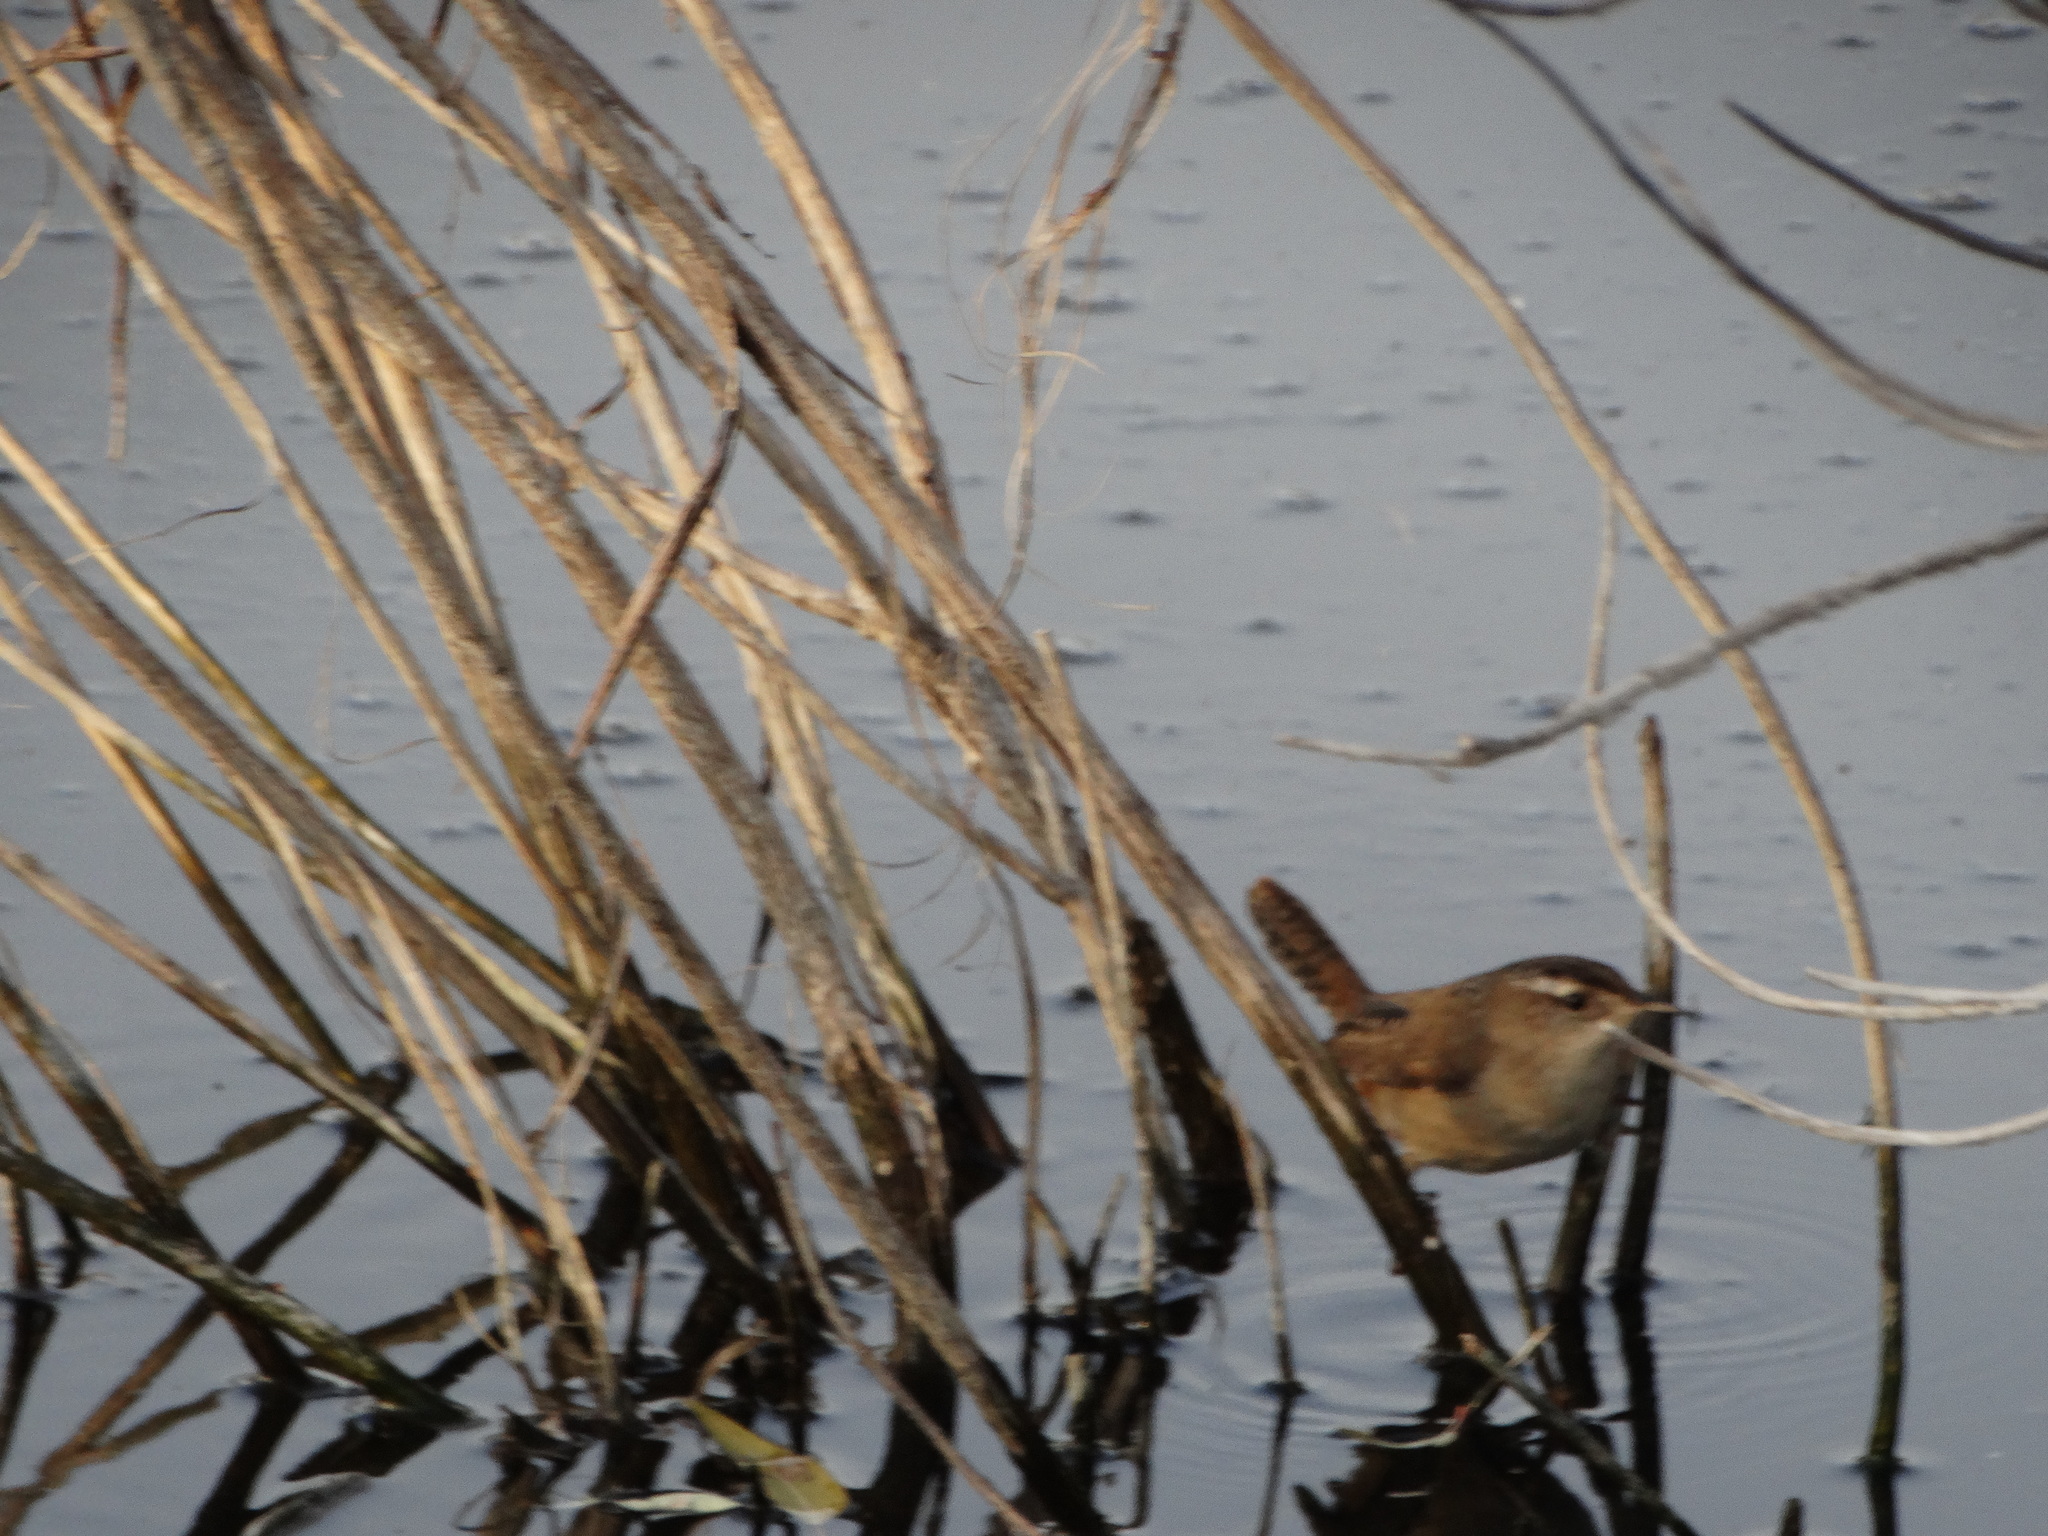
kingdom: Animalia
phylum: Chordata
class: Aves
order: Passeriformes
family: Troglodytidae
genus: Cistothorus
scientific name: Cistothorus palustris
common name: Marsh wren
